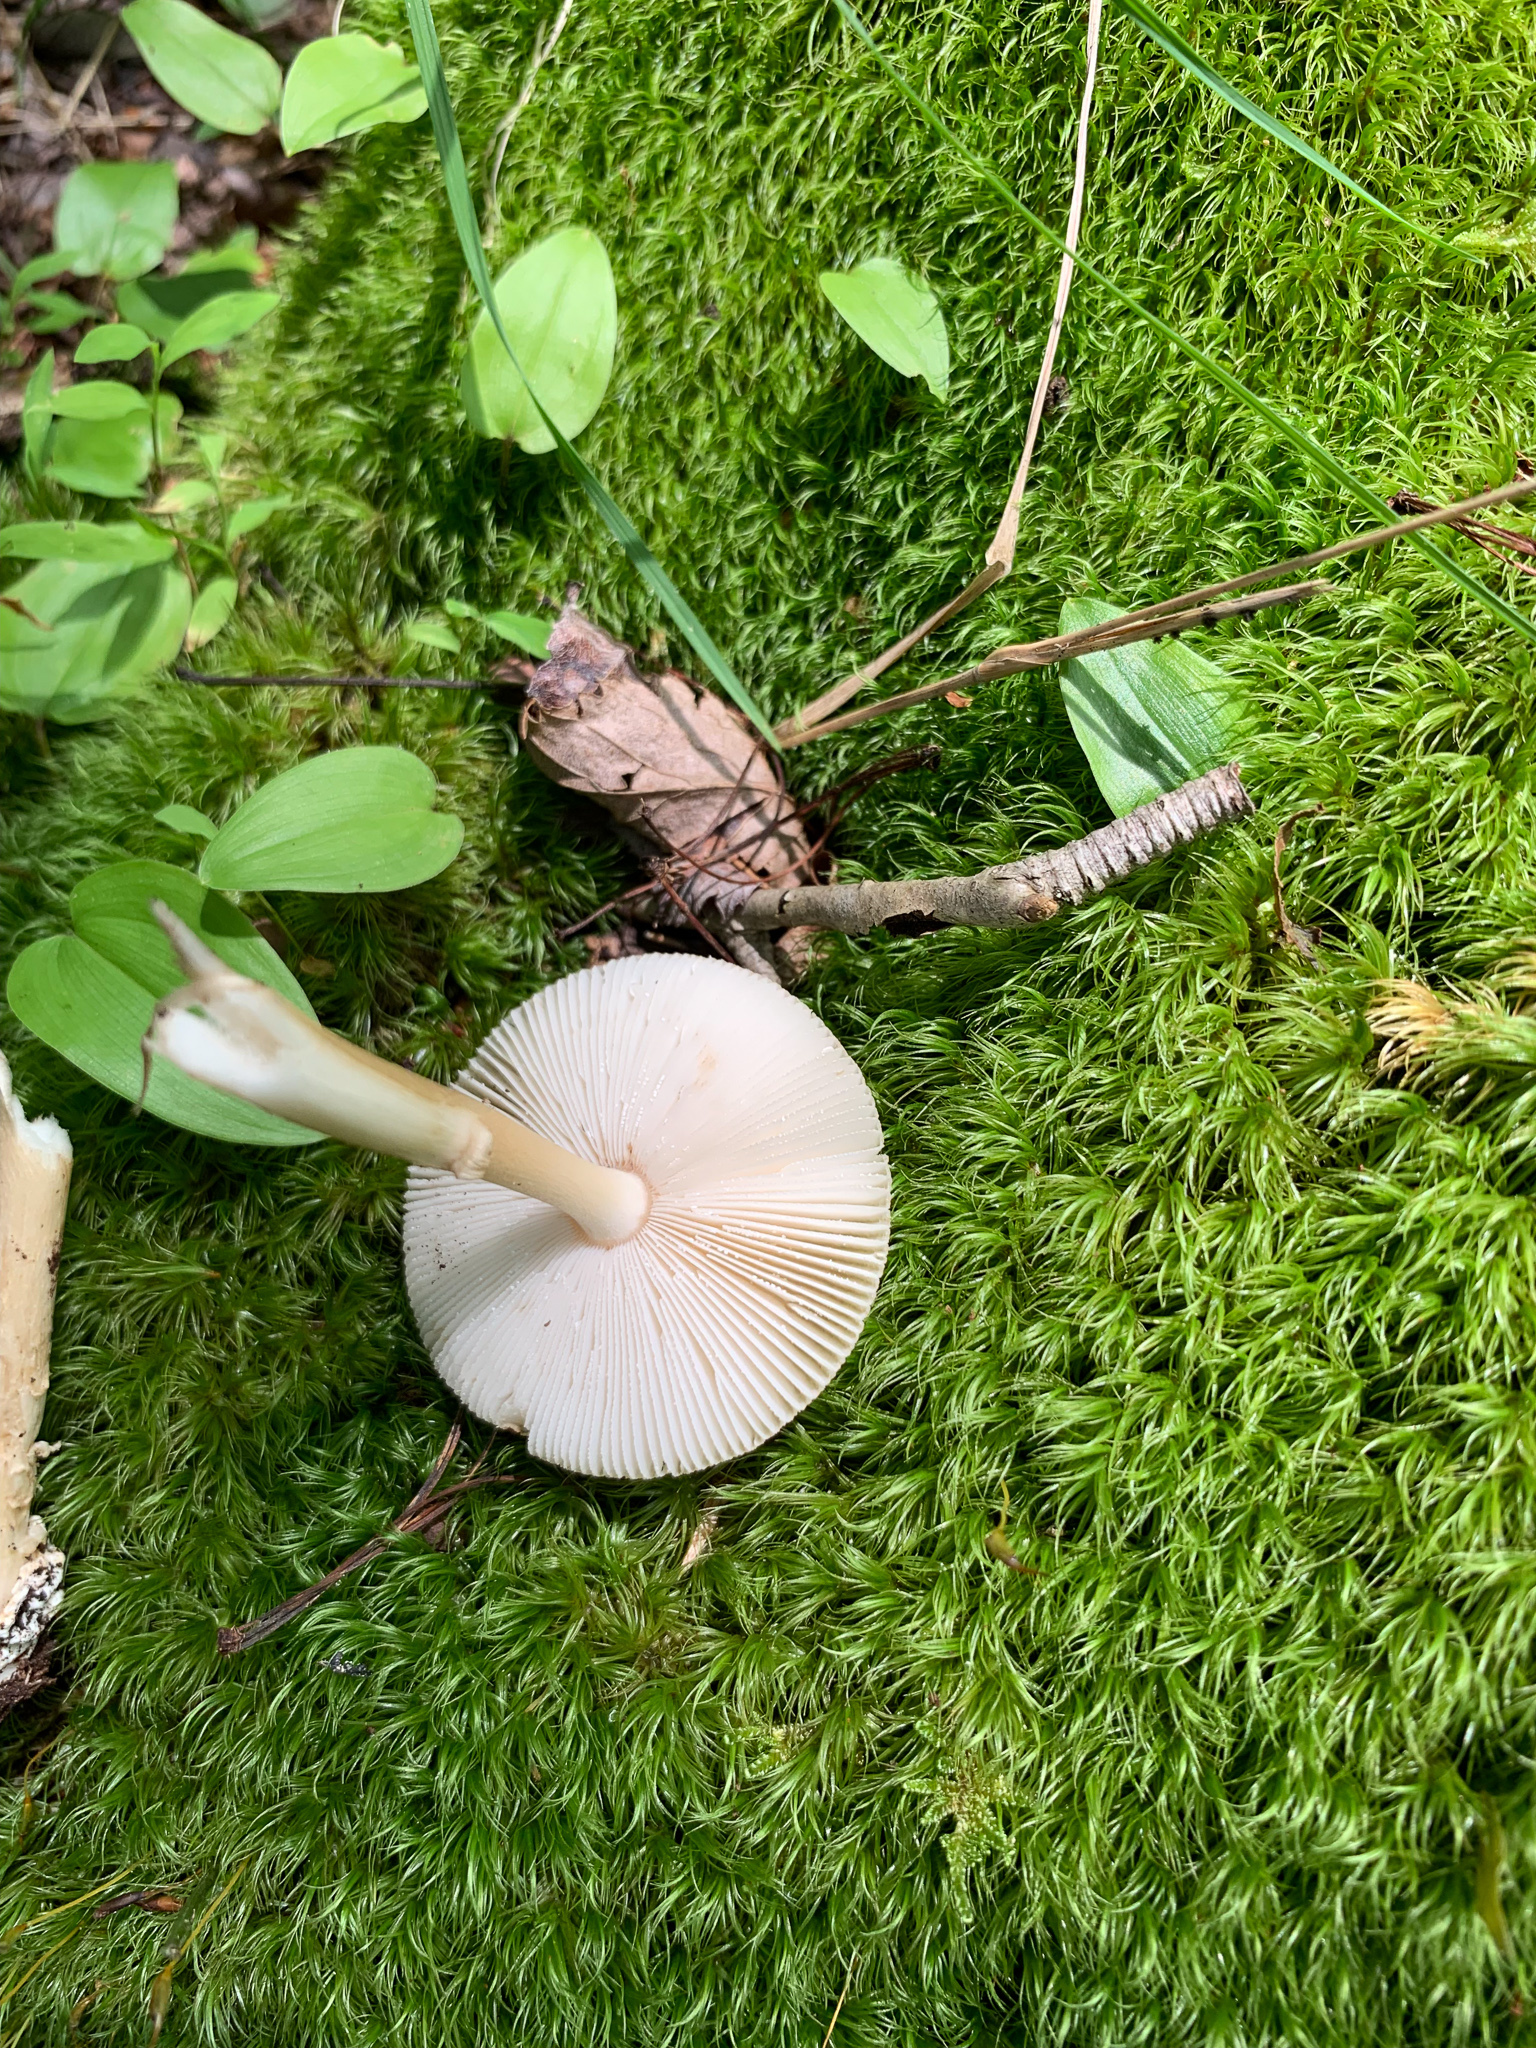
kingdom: Fungi
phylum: Basidiomycota
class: Agaricomycetes
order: Agaricales
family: Amanitaceae
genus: Amanita
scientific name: Amanita fulva
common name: Tawny grisette
